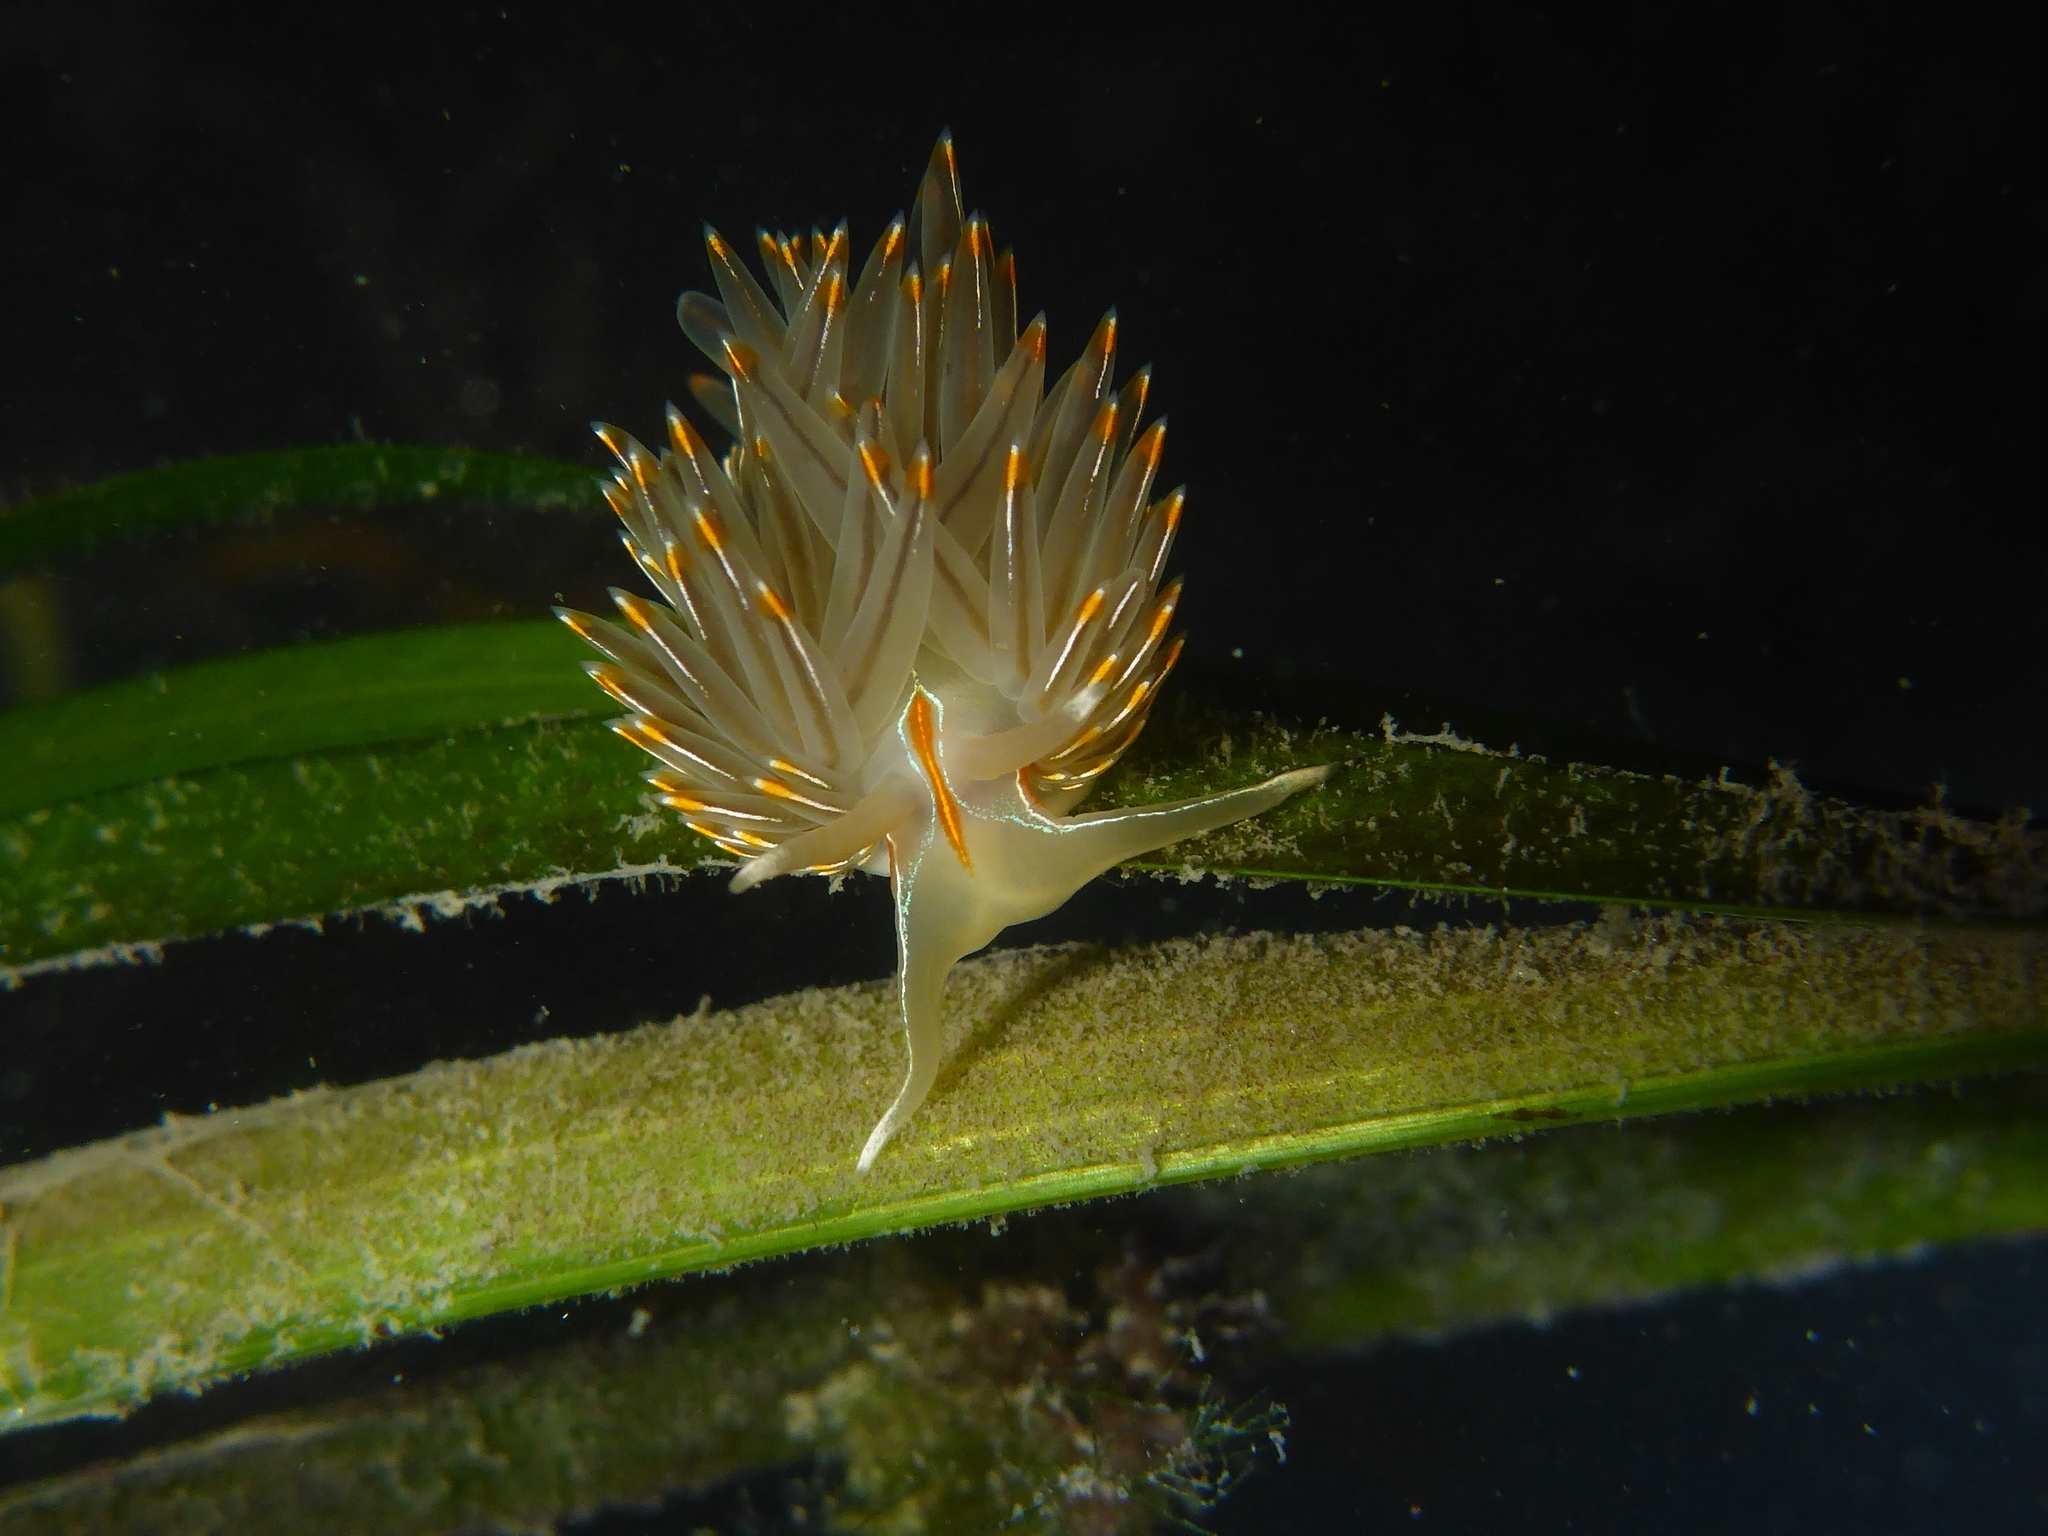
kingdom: Animalia
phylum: Mollusca
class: Gastropoda
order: Nudibranchia
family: Myrrhinidae
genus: Hermissenda
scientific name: Hermissenda crassicornis
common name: Hermissenda
